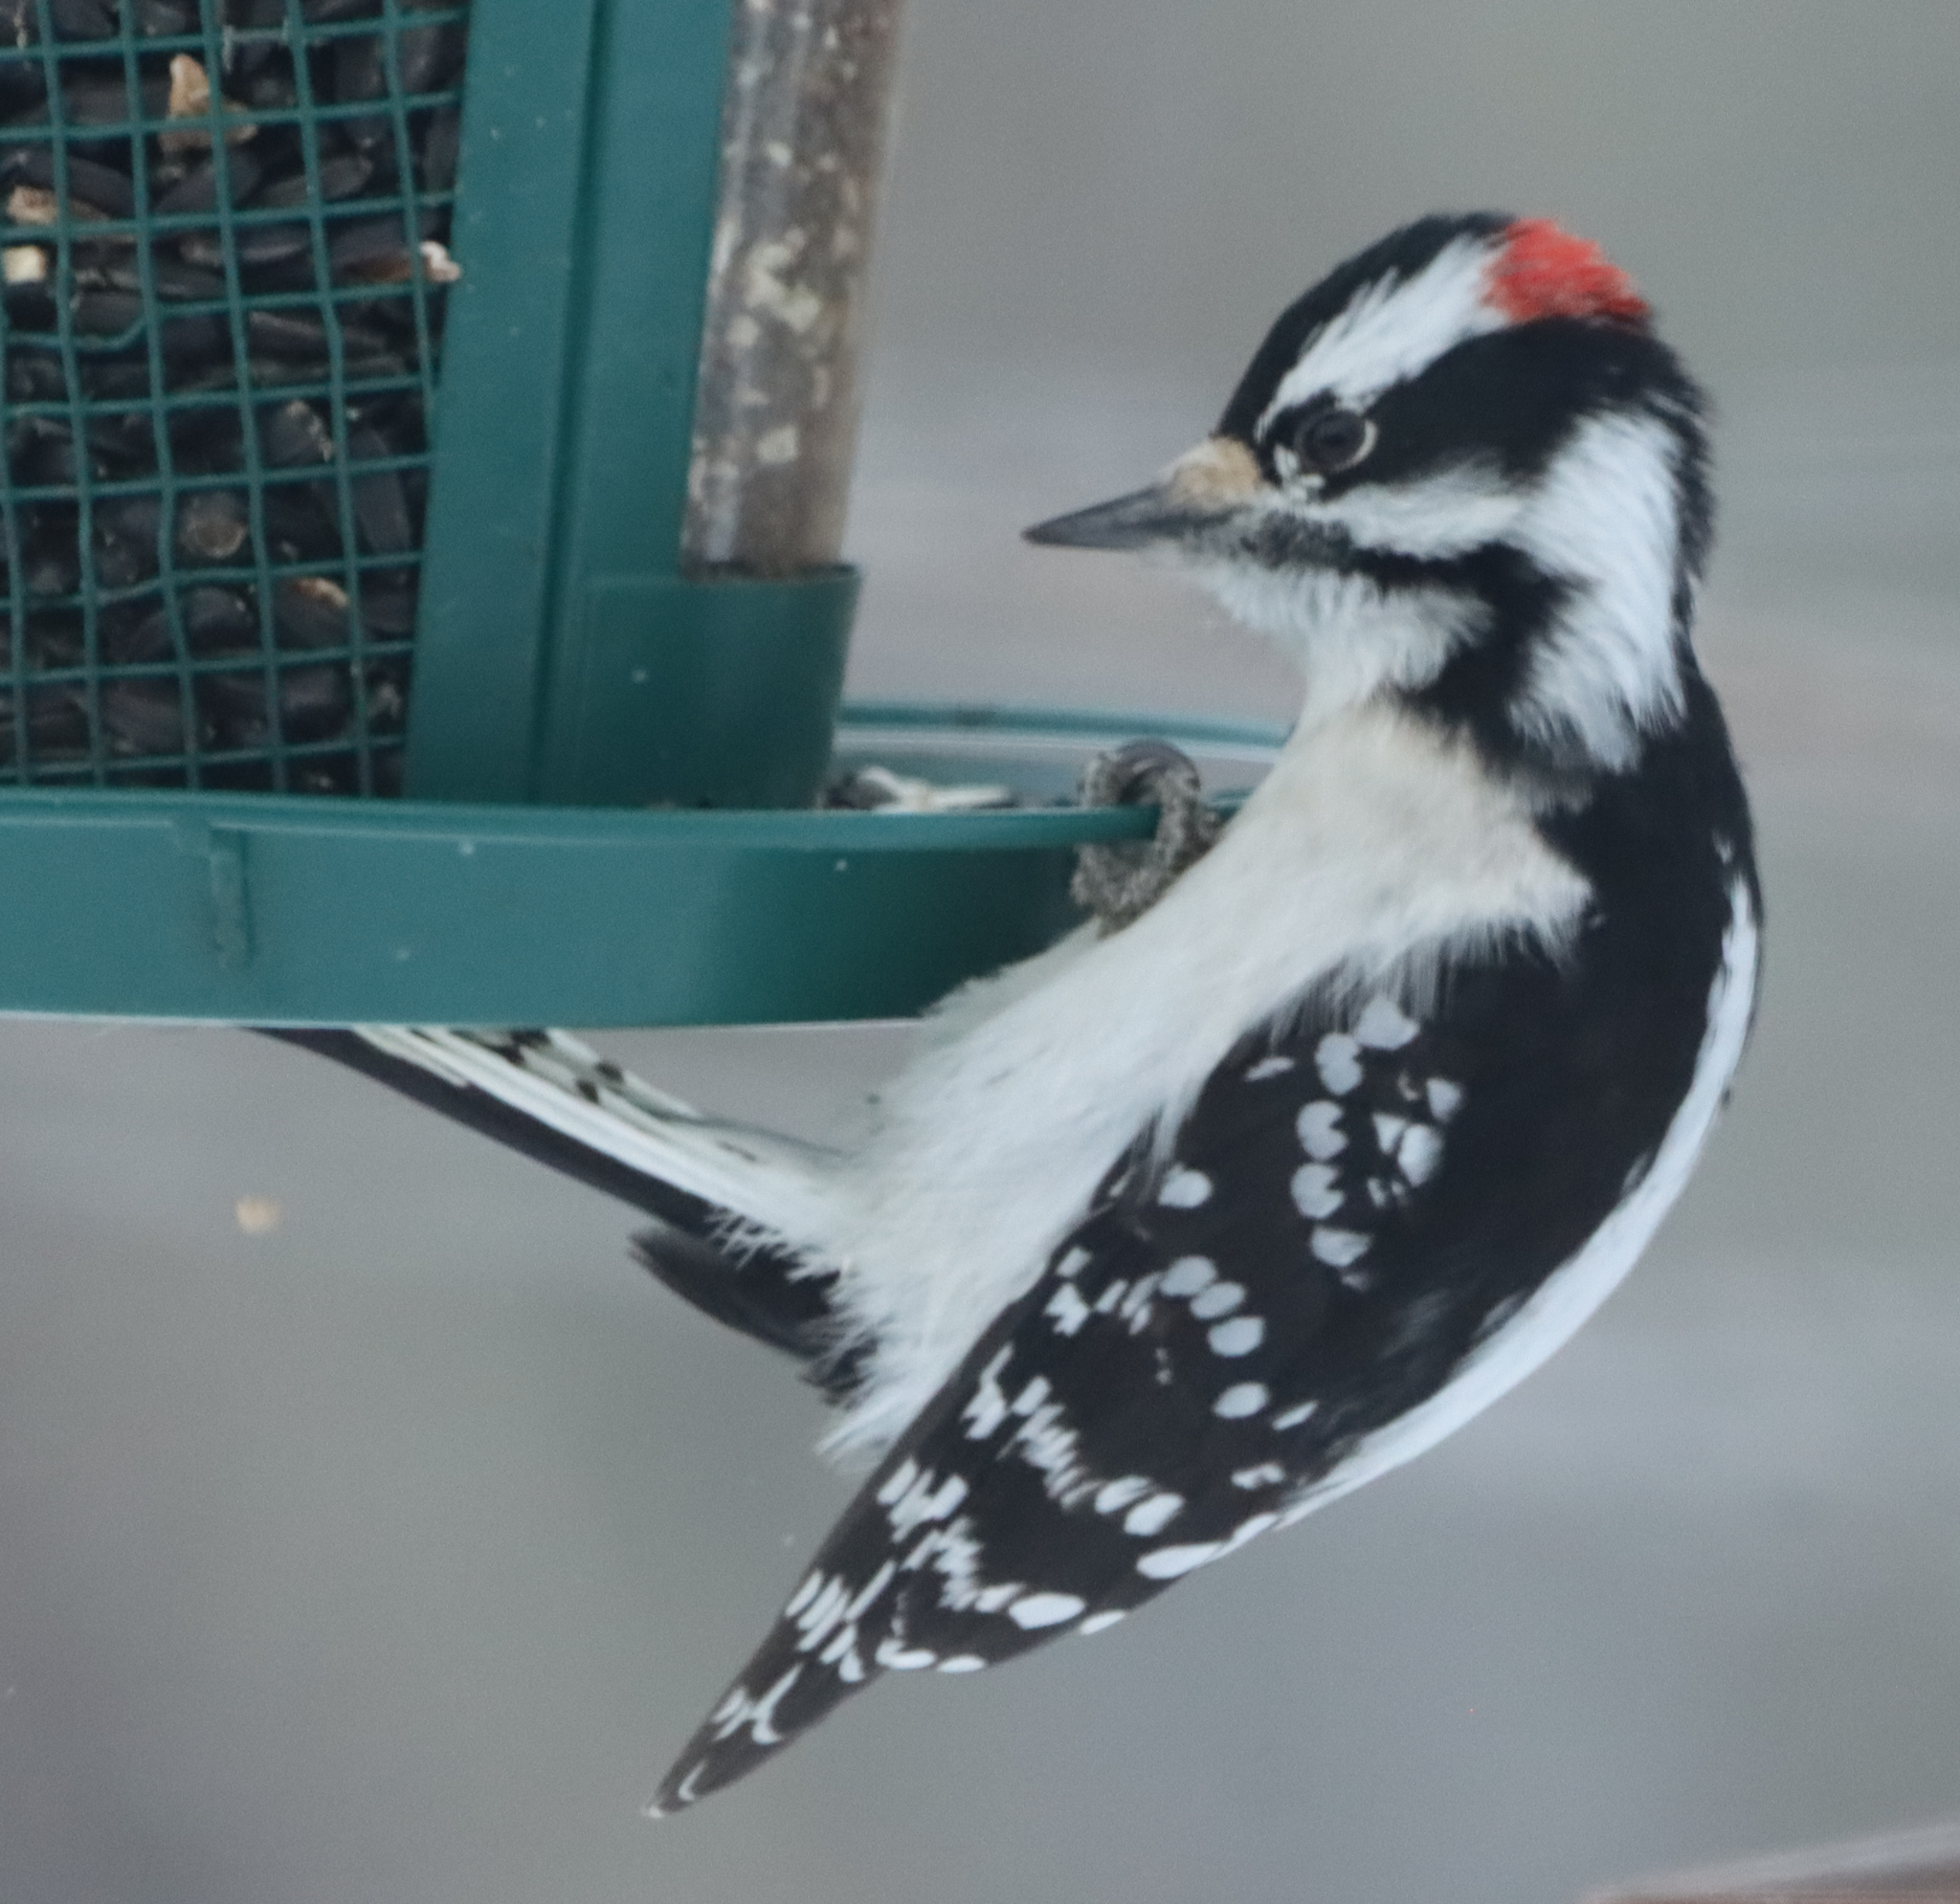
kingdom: Animalia
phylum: Chordata
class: Aves
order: Piciformes
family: Picidae
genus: Dryobates
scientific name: Dryobates pubescens
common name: Downy woodpecker
